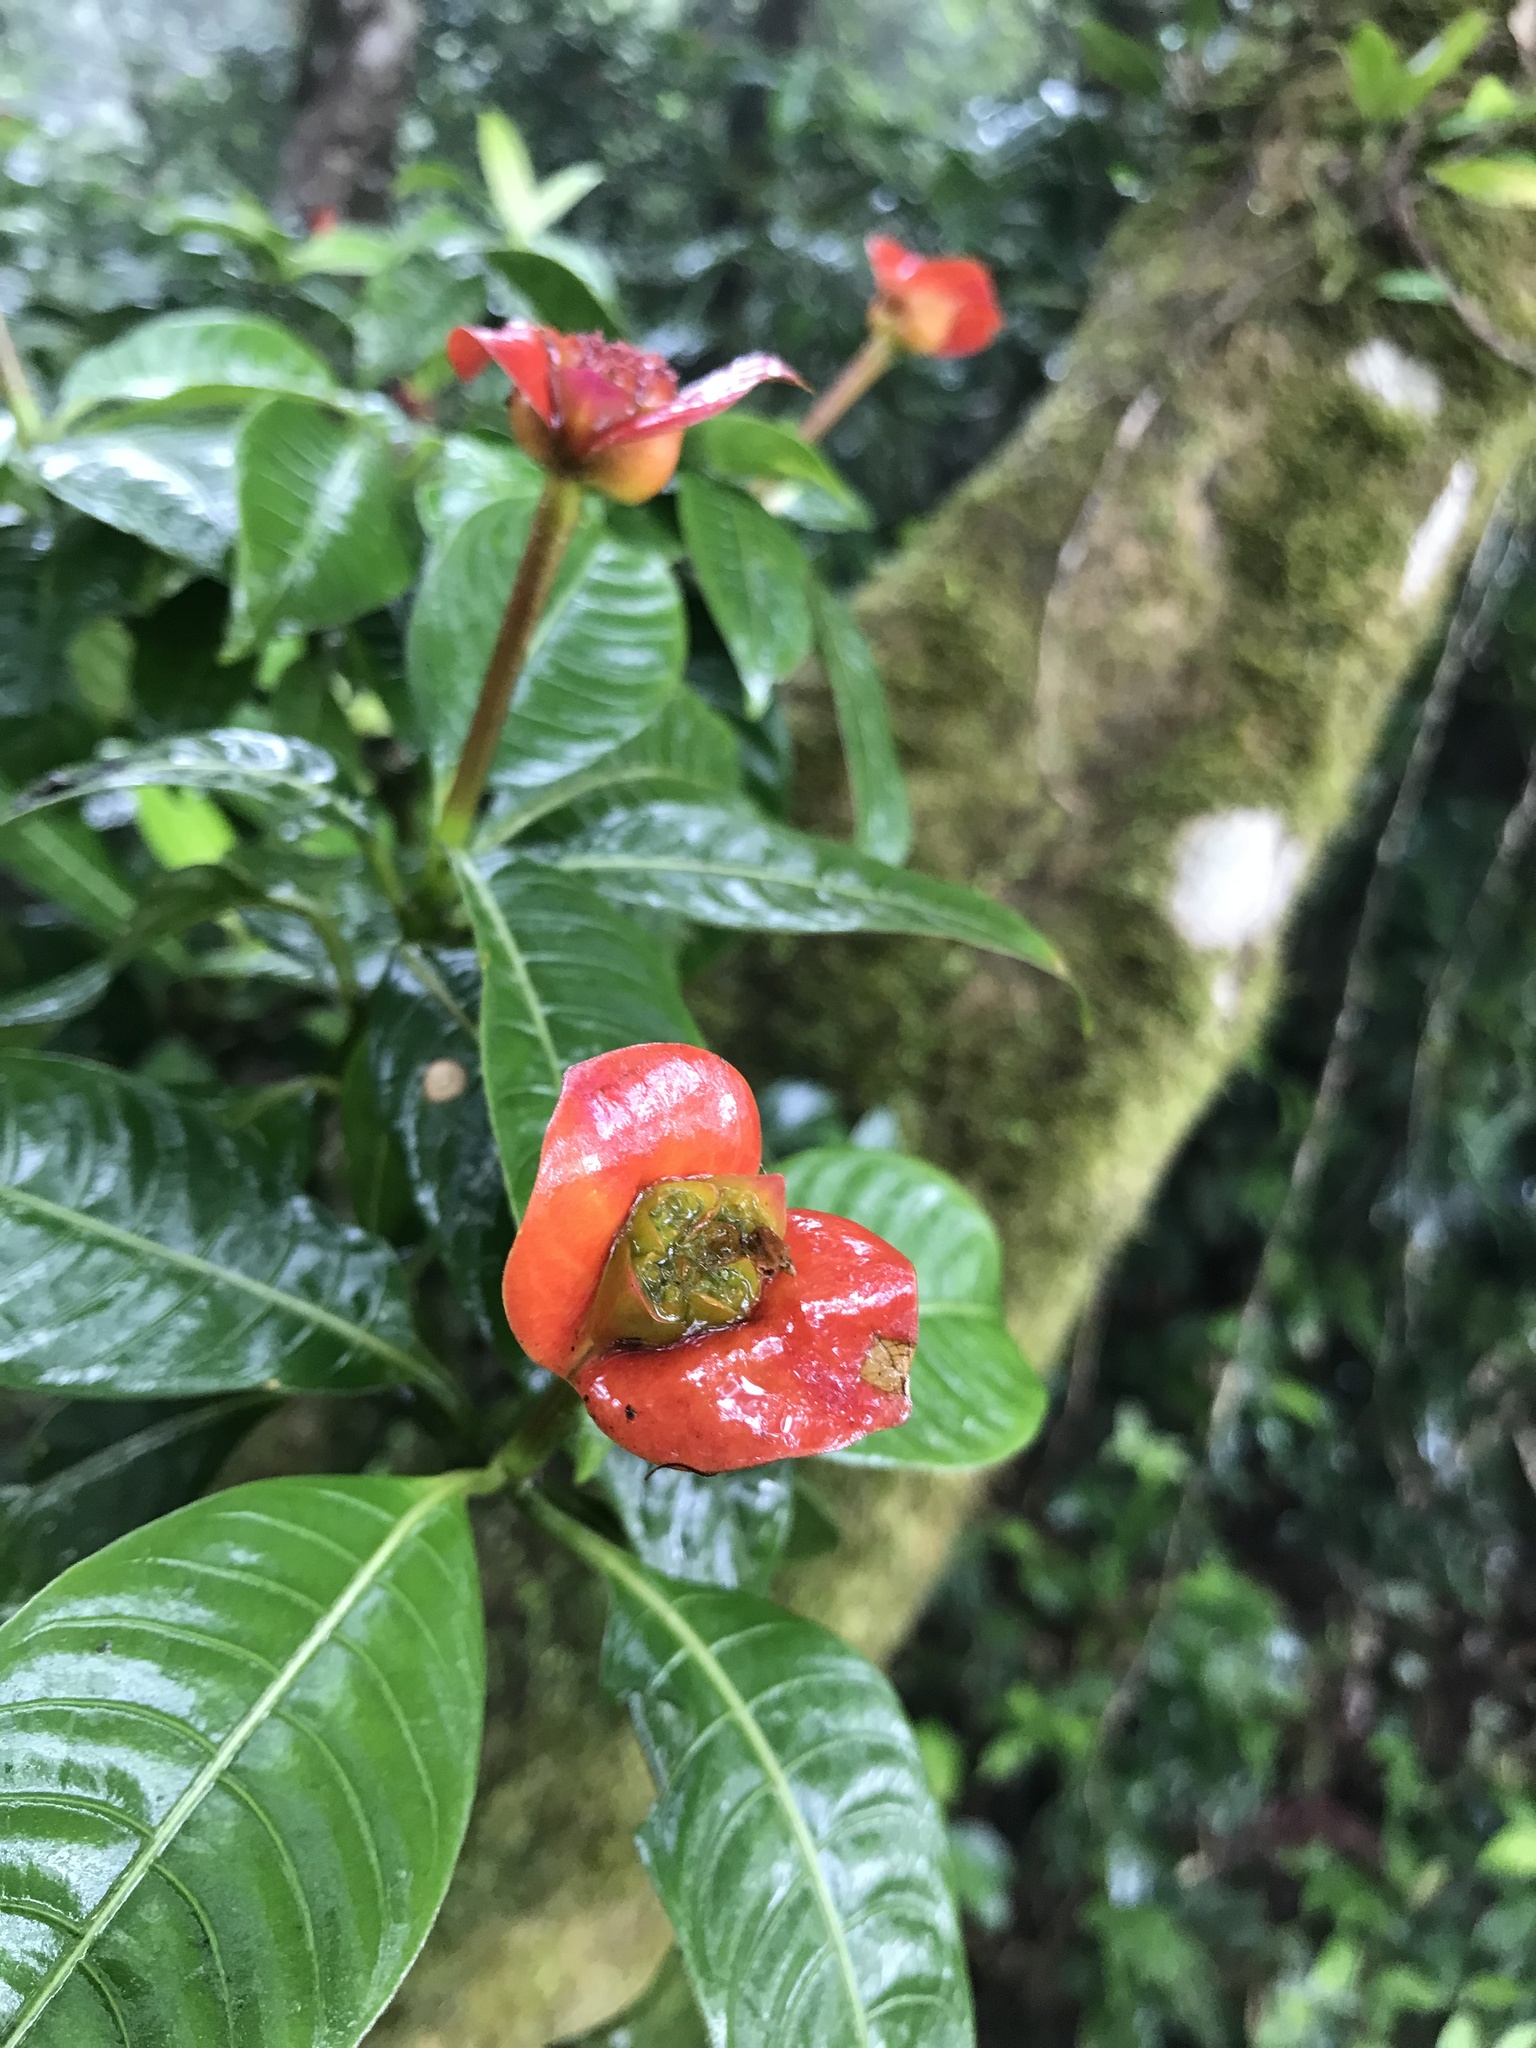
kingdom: Plantae
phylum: Tracheophyta
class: Magnoliopsida
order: Gentianales
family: Rubiaceae
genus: Palicourea
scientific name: Palicourea elata
